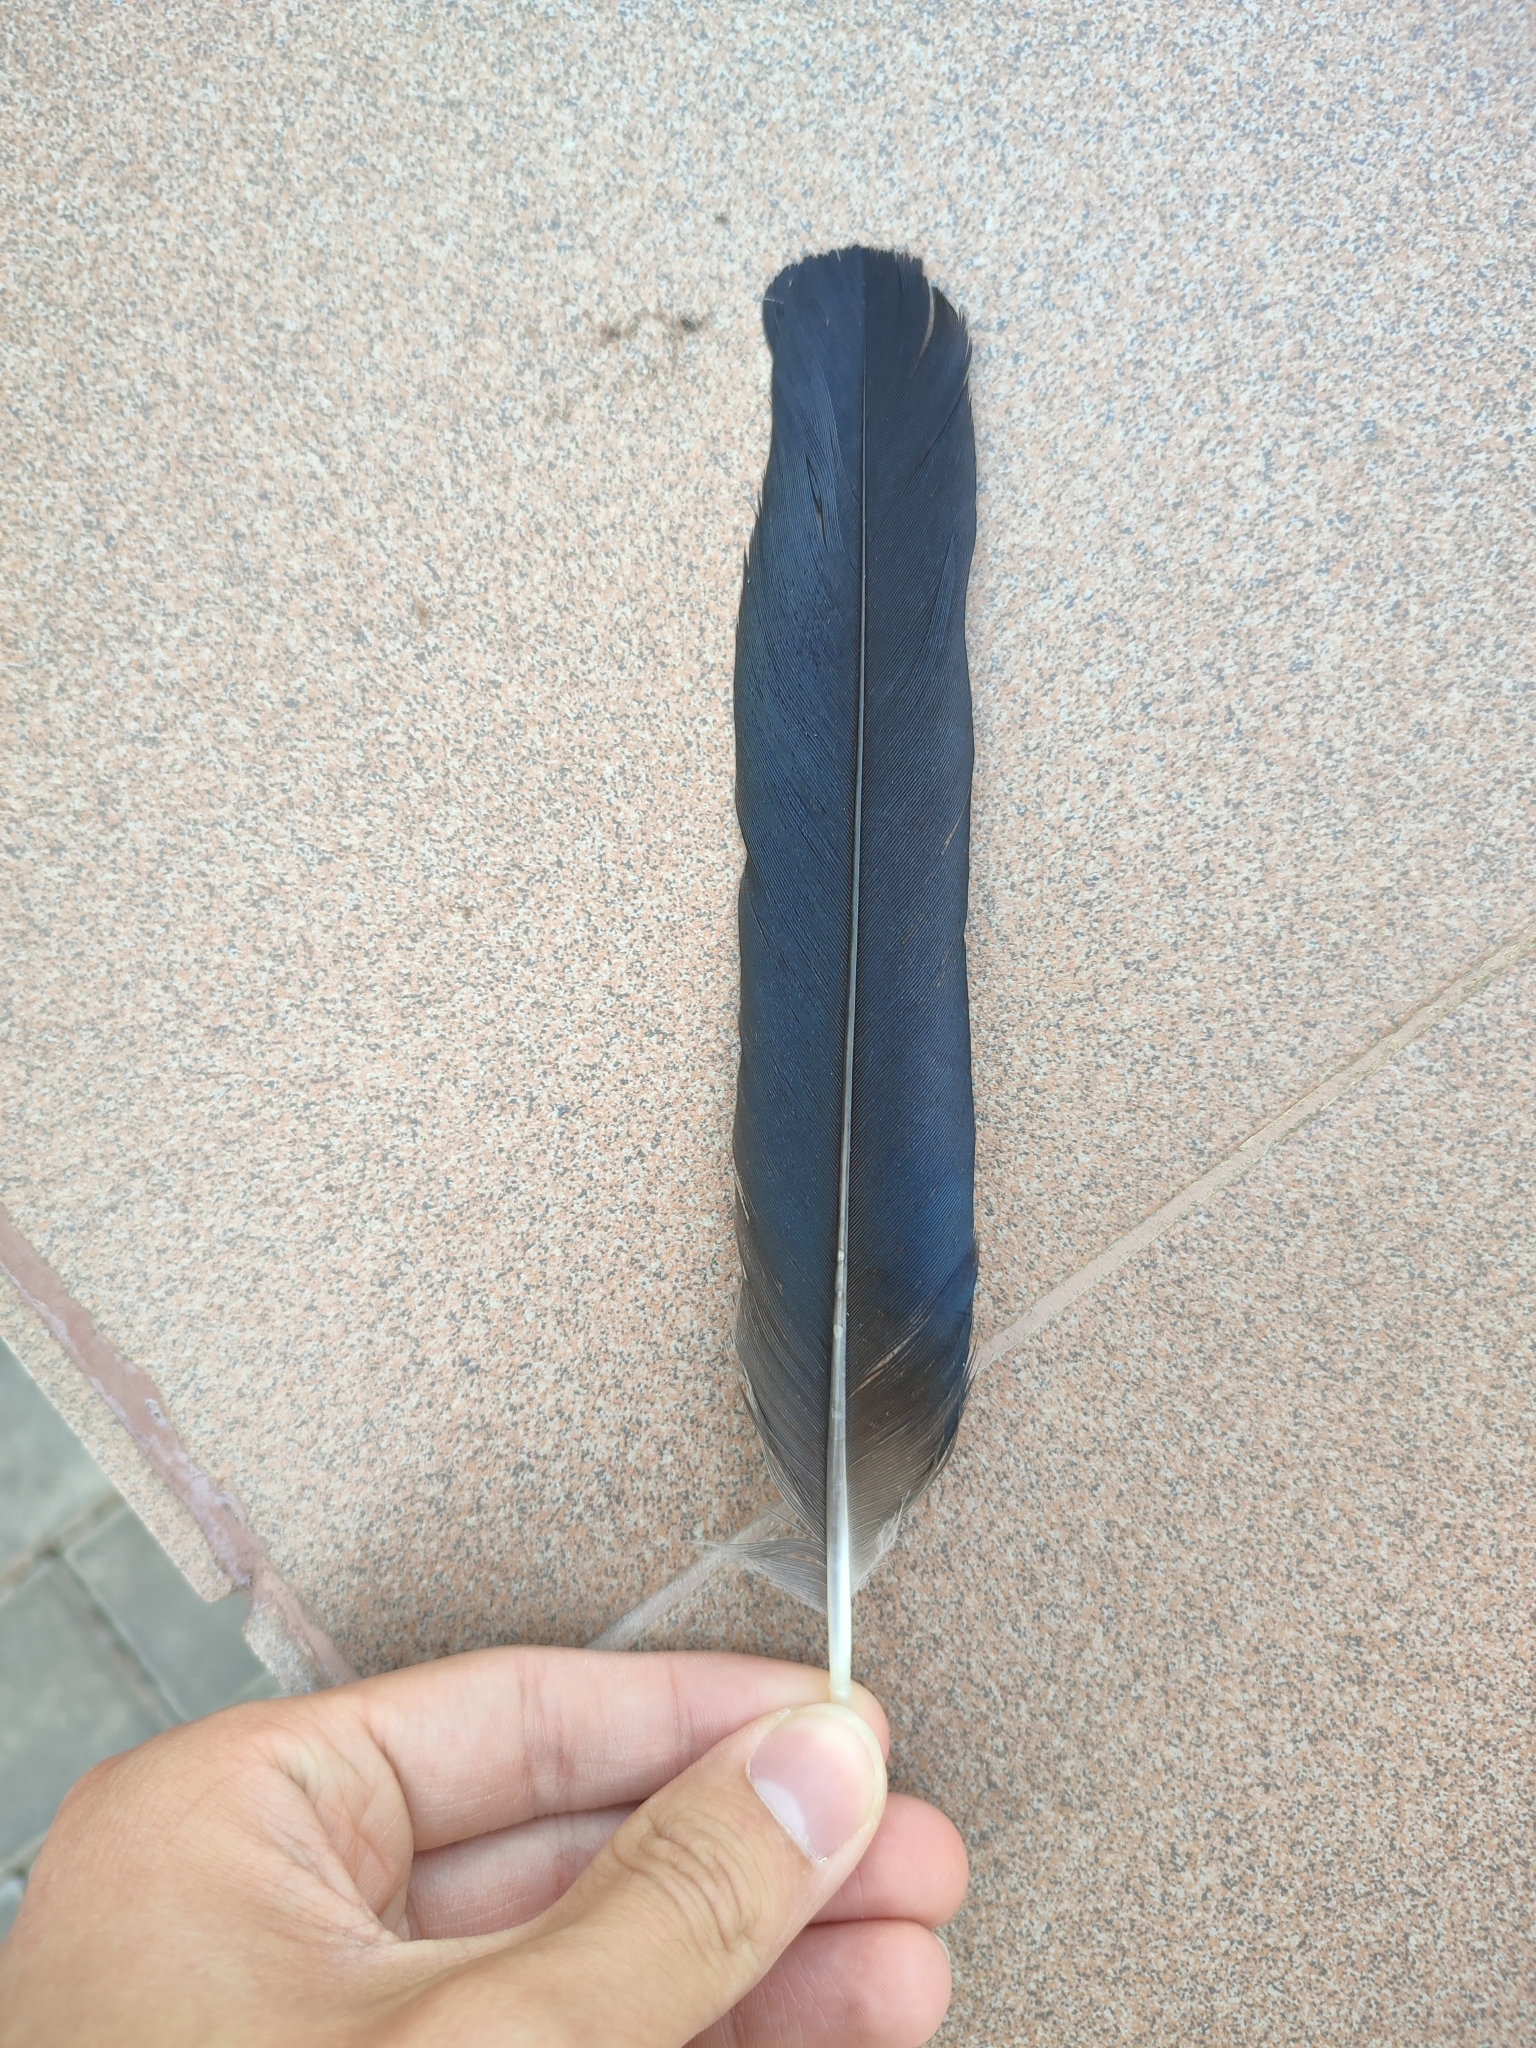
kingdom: Animalia
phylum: Chordata
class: Aves
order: Passeriformes
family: Corvidae
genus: Pica
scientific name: Pica pica
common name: Eurasian magpie
